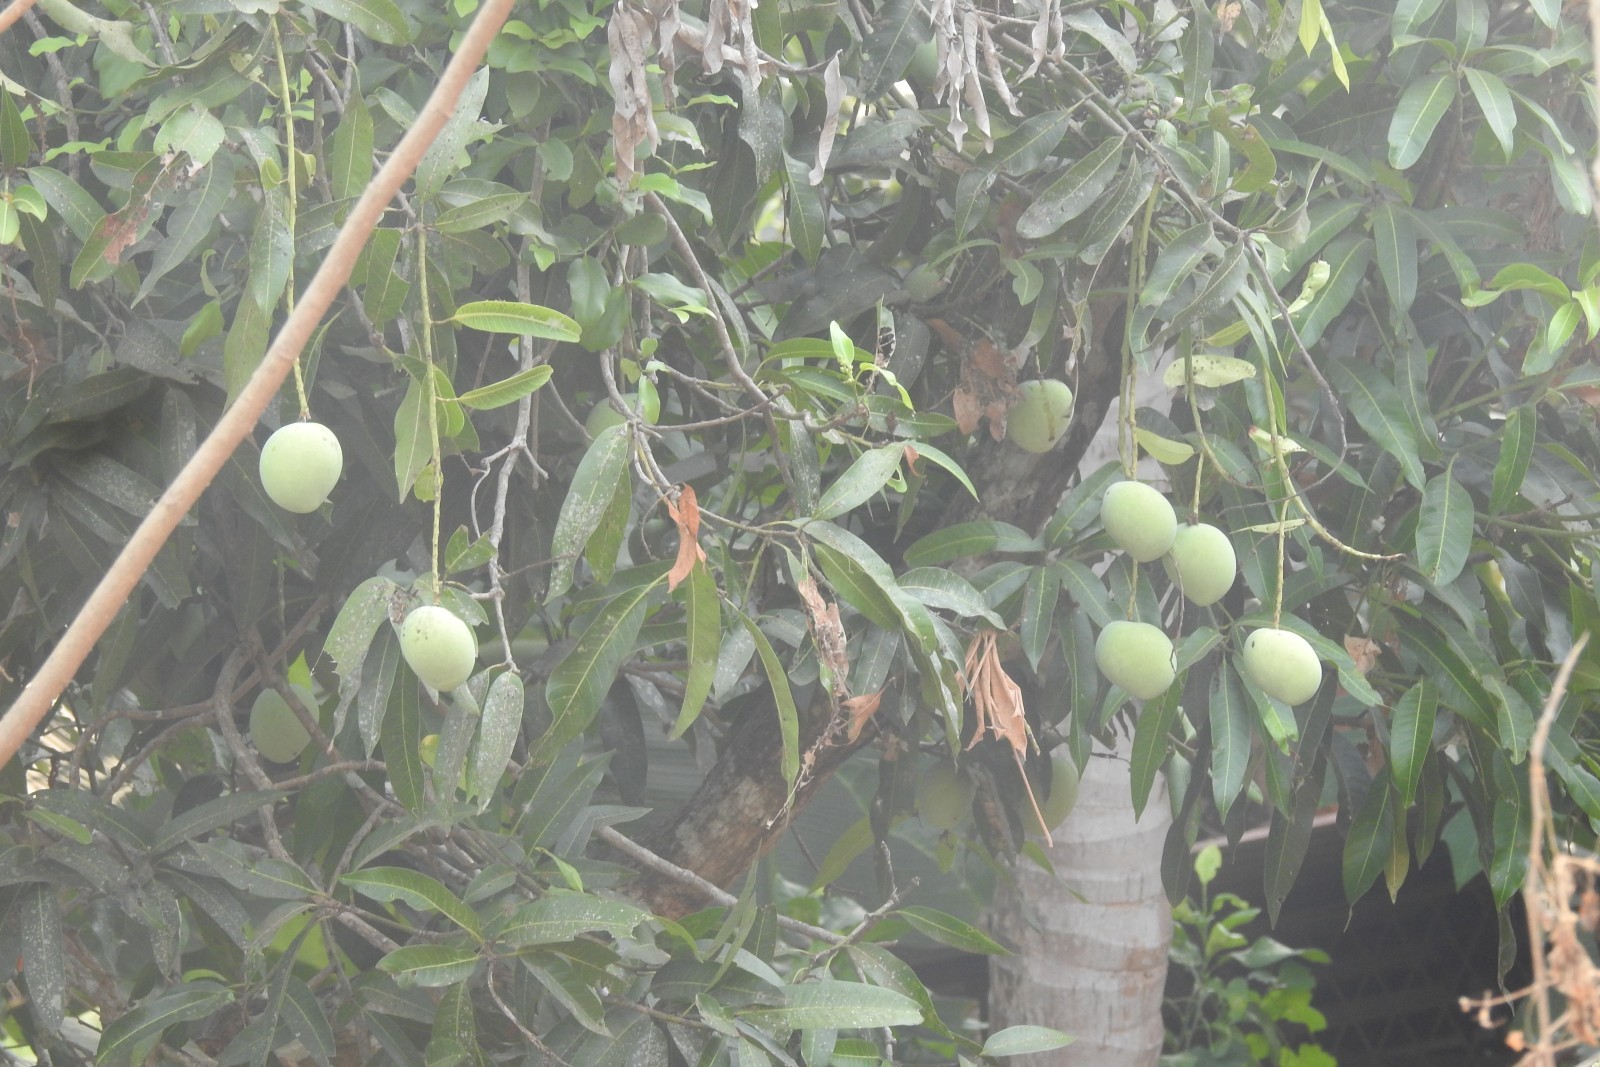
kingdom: Plantae
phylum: Tracheophyta
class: Magnoliopsida
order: Sapindales
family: Anacardiaceae
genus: Mangifera
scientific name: Mangifera indica
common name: Mango
